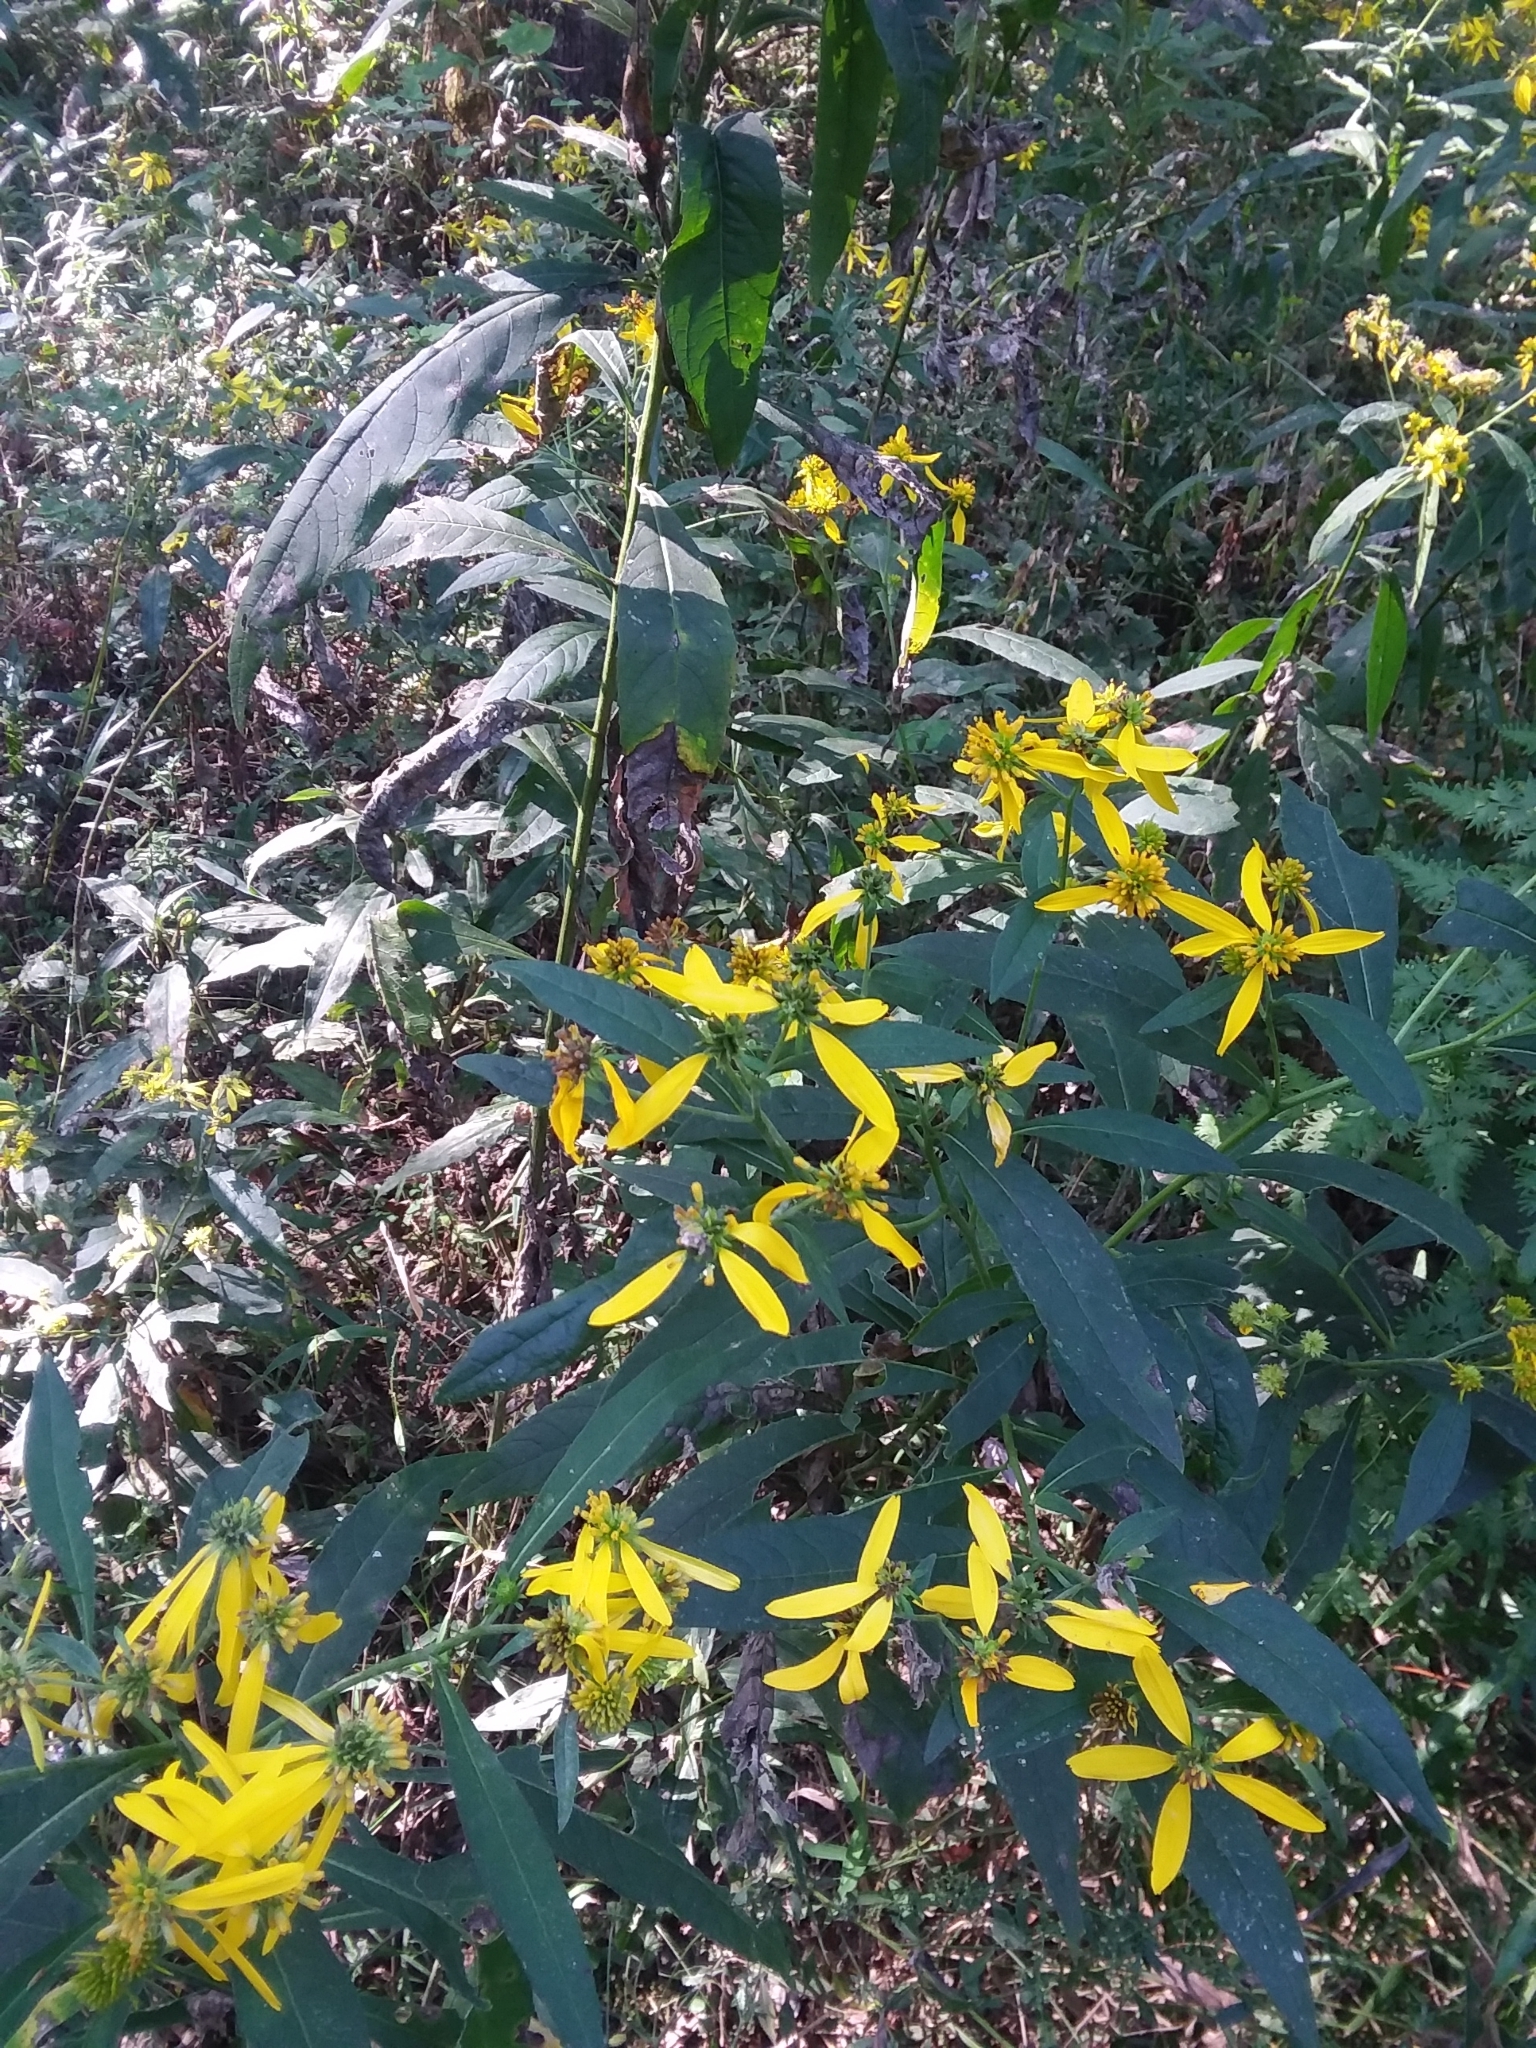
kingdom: Plantae
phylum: Tracheophyta
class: Magnoliopsida
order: Asterales
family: Asteraceae
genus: Verbesina
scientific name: Verbesina alternifolia
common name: Wingstem
